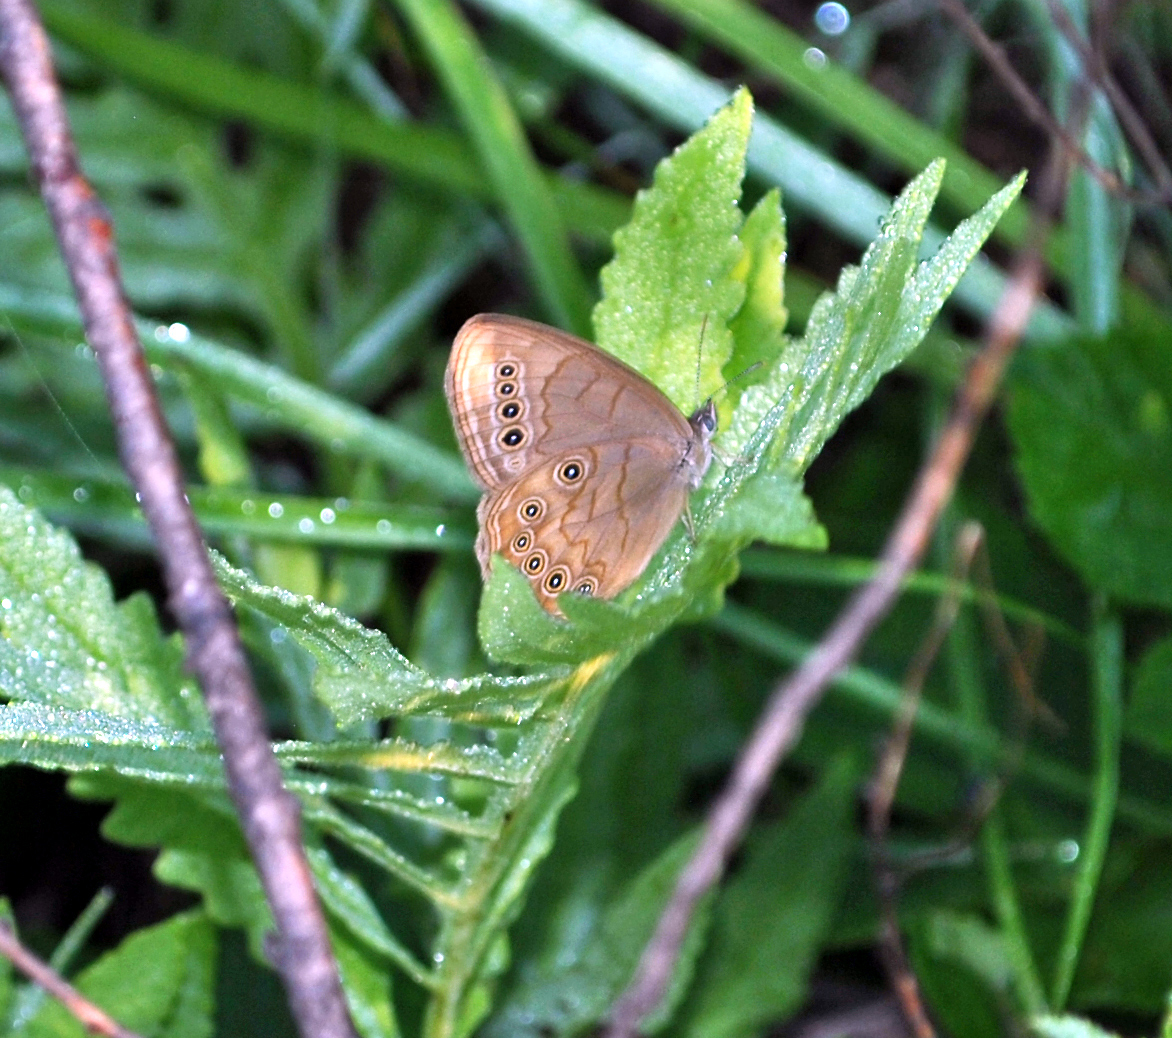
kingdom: Animalia
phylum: Arthropoda
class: Insecta
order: Lepidoptera
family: Nymphalidae
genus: Lethe
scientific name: Lethe eurydice
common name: Eyed brown
